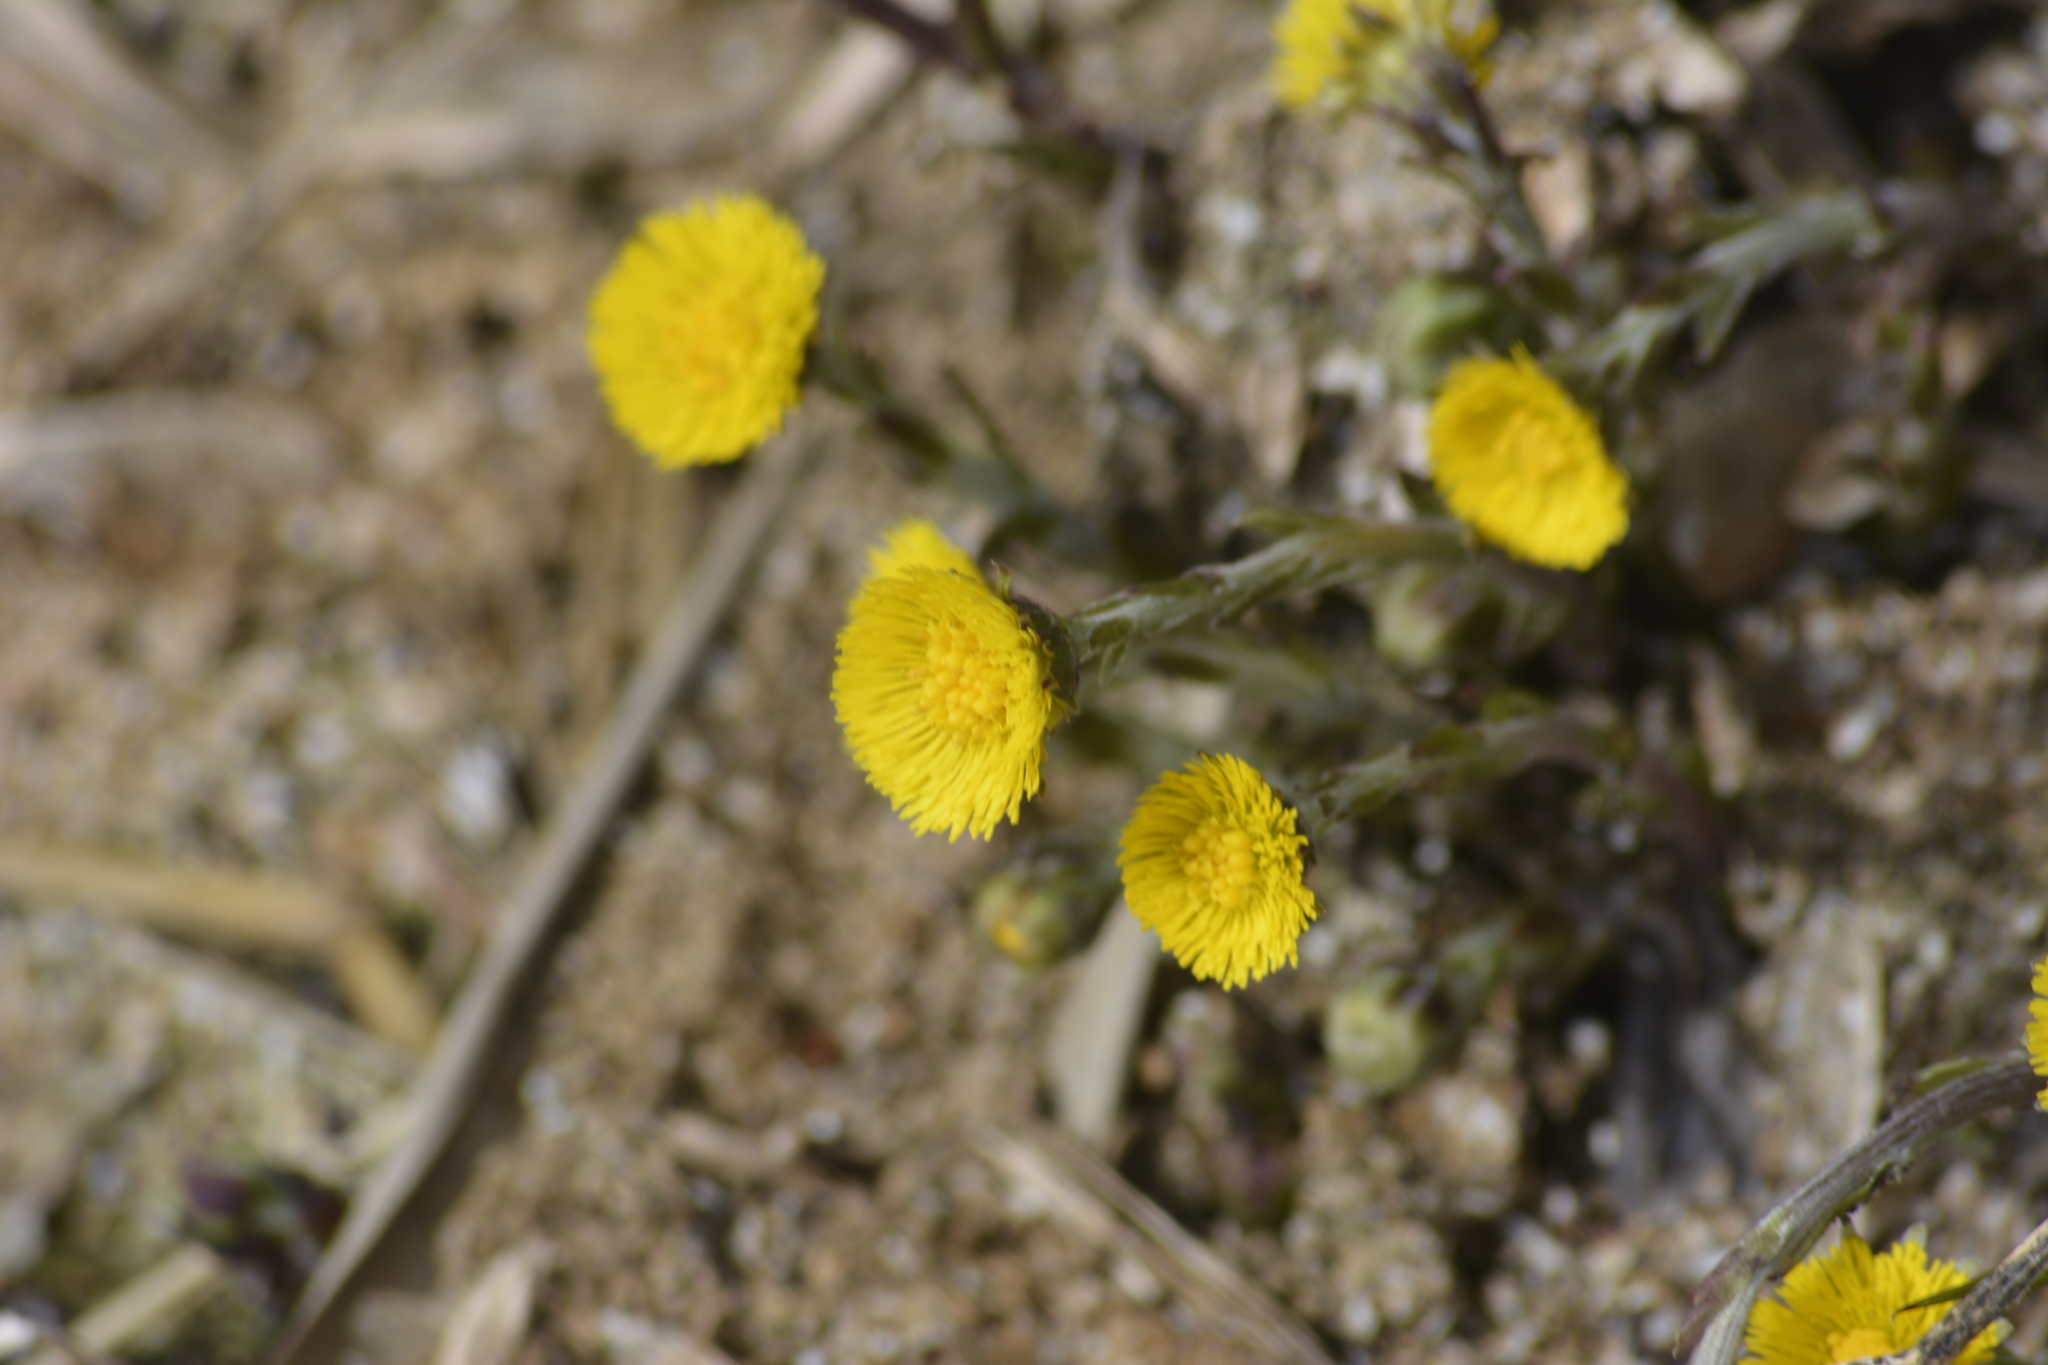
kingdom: Plantae
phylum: Tracheophyta
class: Magnoliopsida
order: Asterales
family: Asteraceae
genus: Tussilago
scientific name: Tussilago farfara
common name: Coltsfoot
